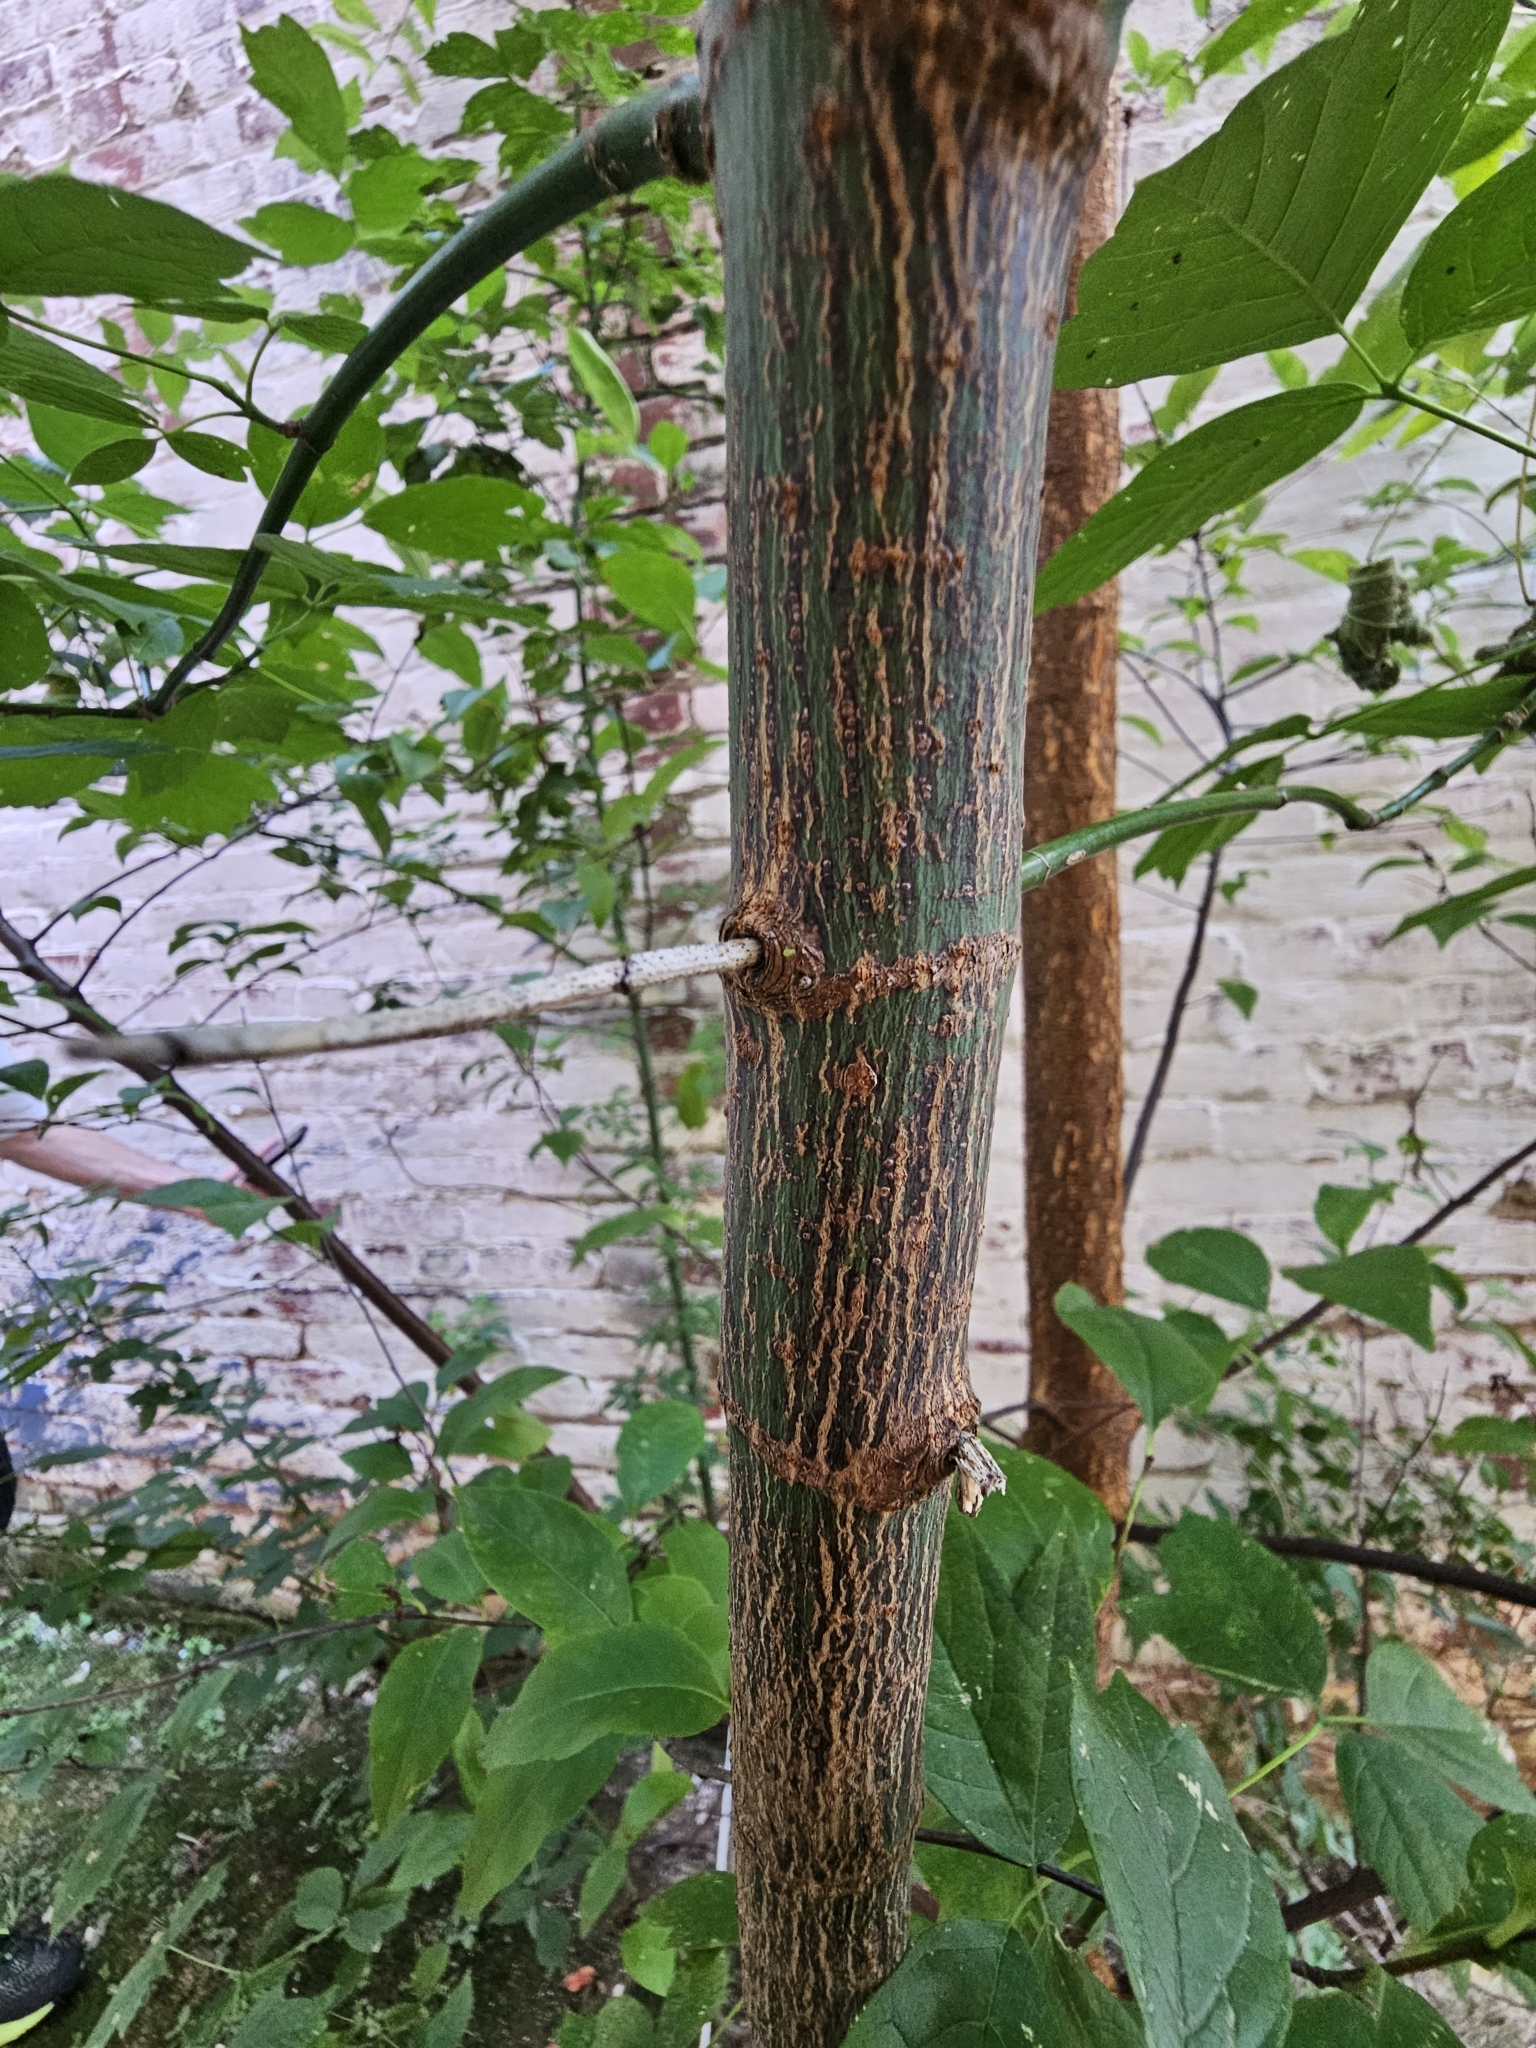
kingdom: Plantae
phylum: Tracheophyta
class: Magnoliopsida
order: Sapindales
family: Sapindaceae
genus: Acer
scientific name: Acer negundo
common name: Ashleaf maple
